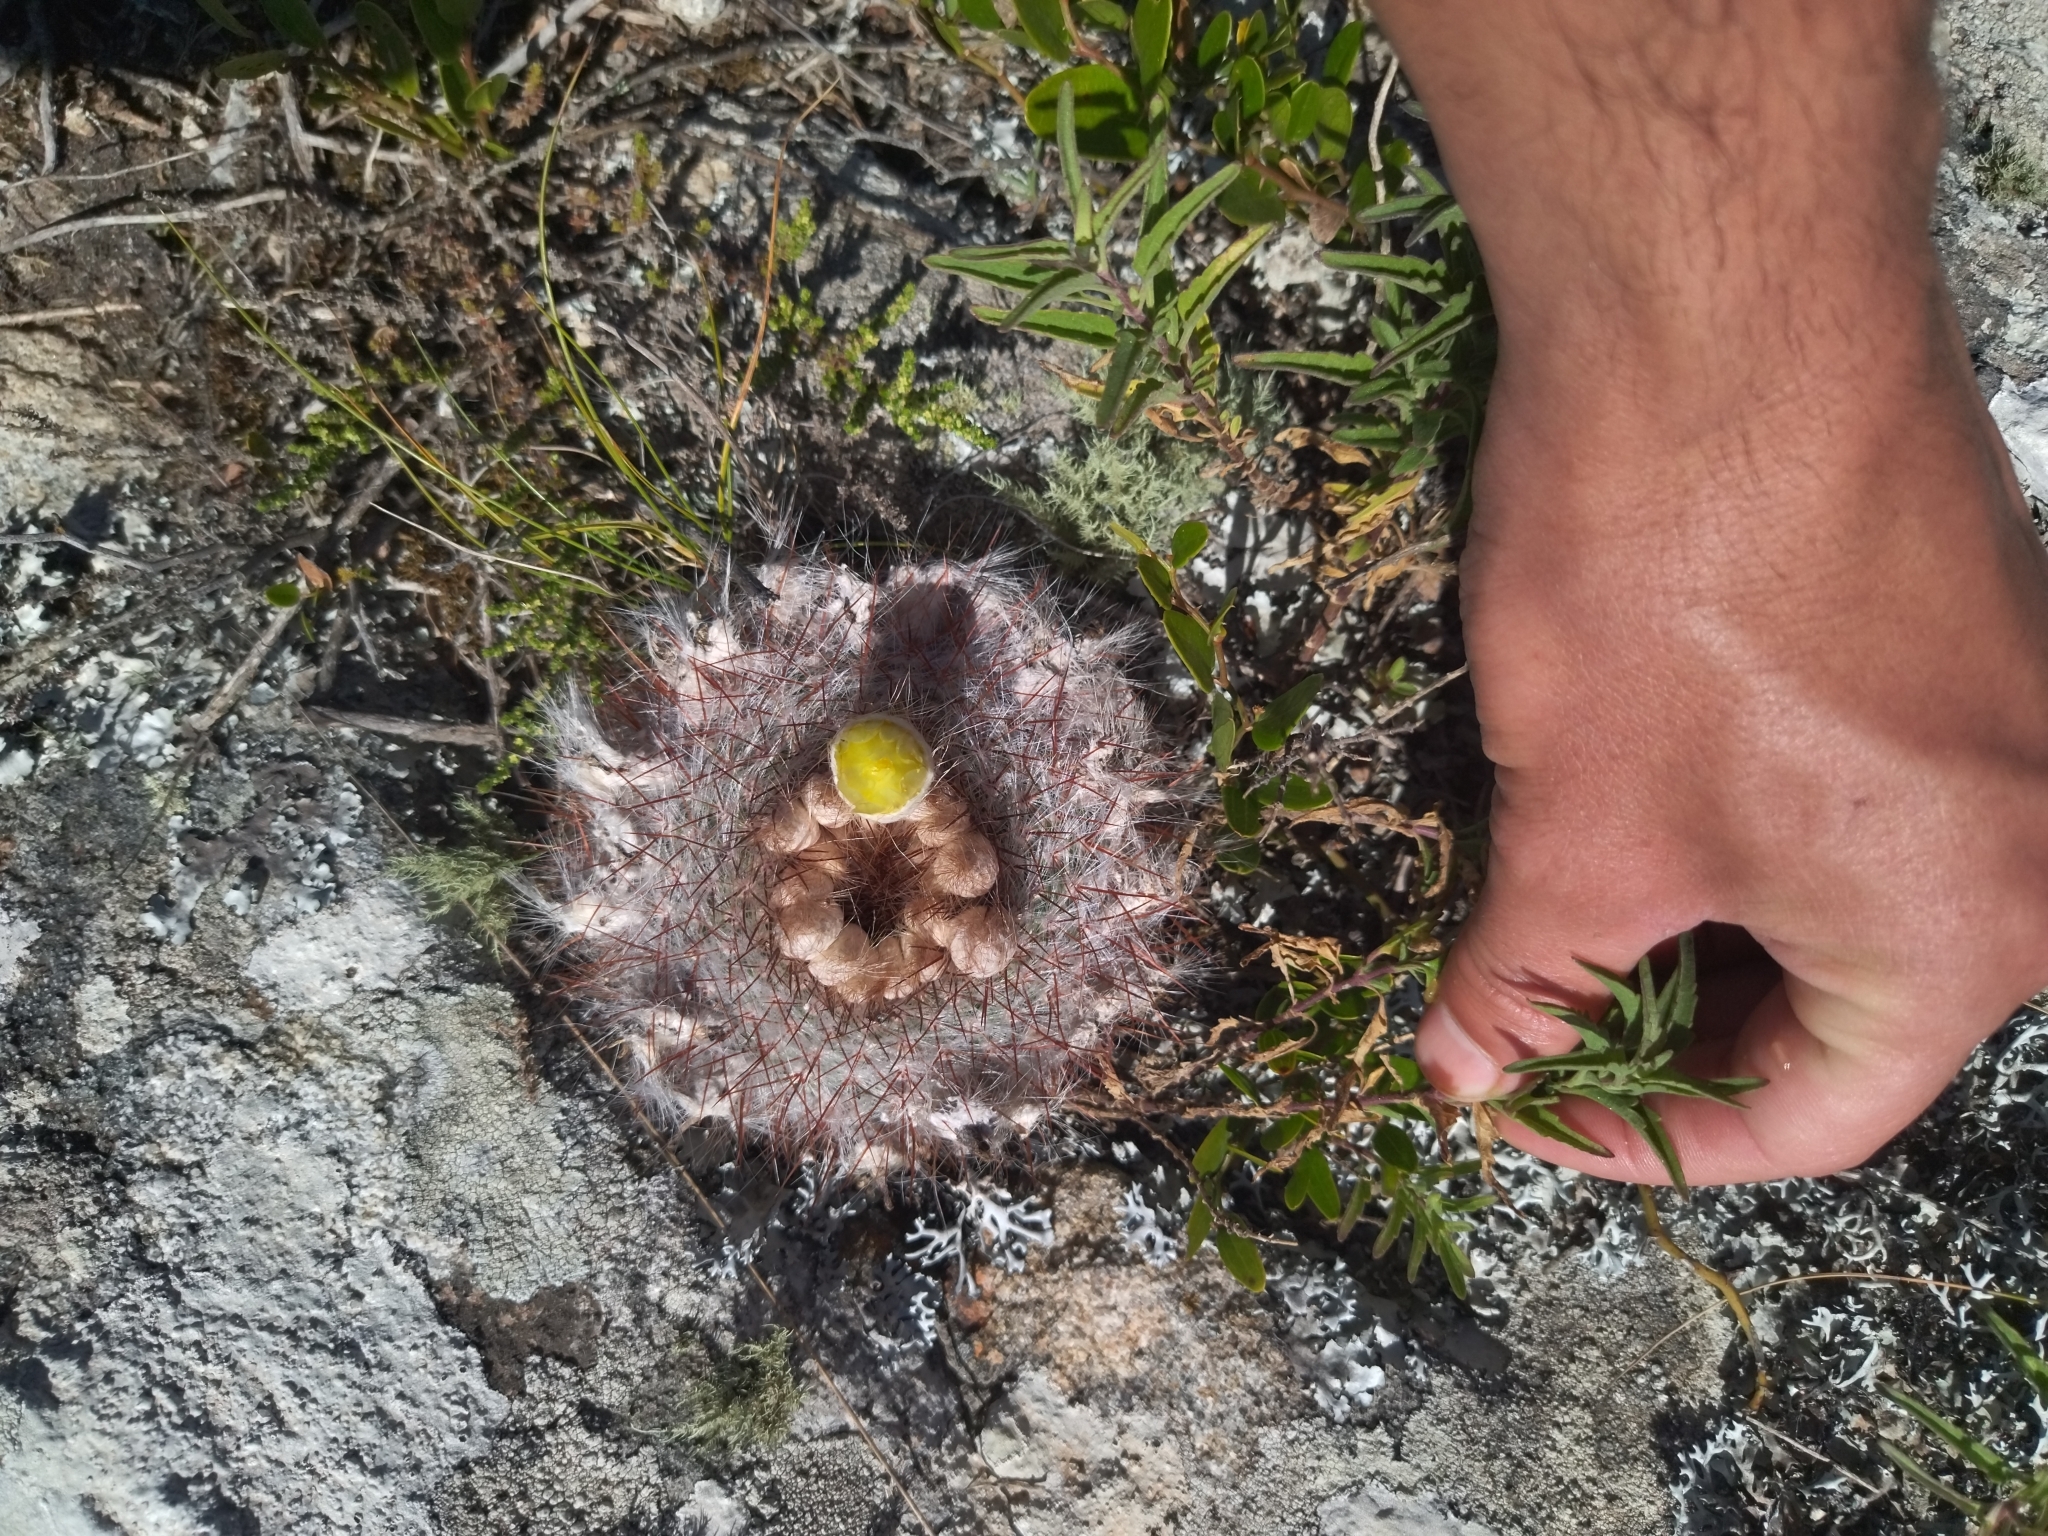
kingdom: Plantae
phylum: Tracheophyta
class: Magnoliopsida
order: Caryophyllales
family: Cactaceae
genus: Parodia
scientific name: Parodia scopa
